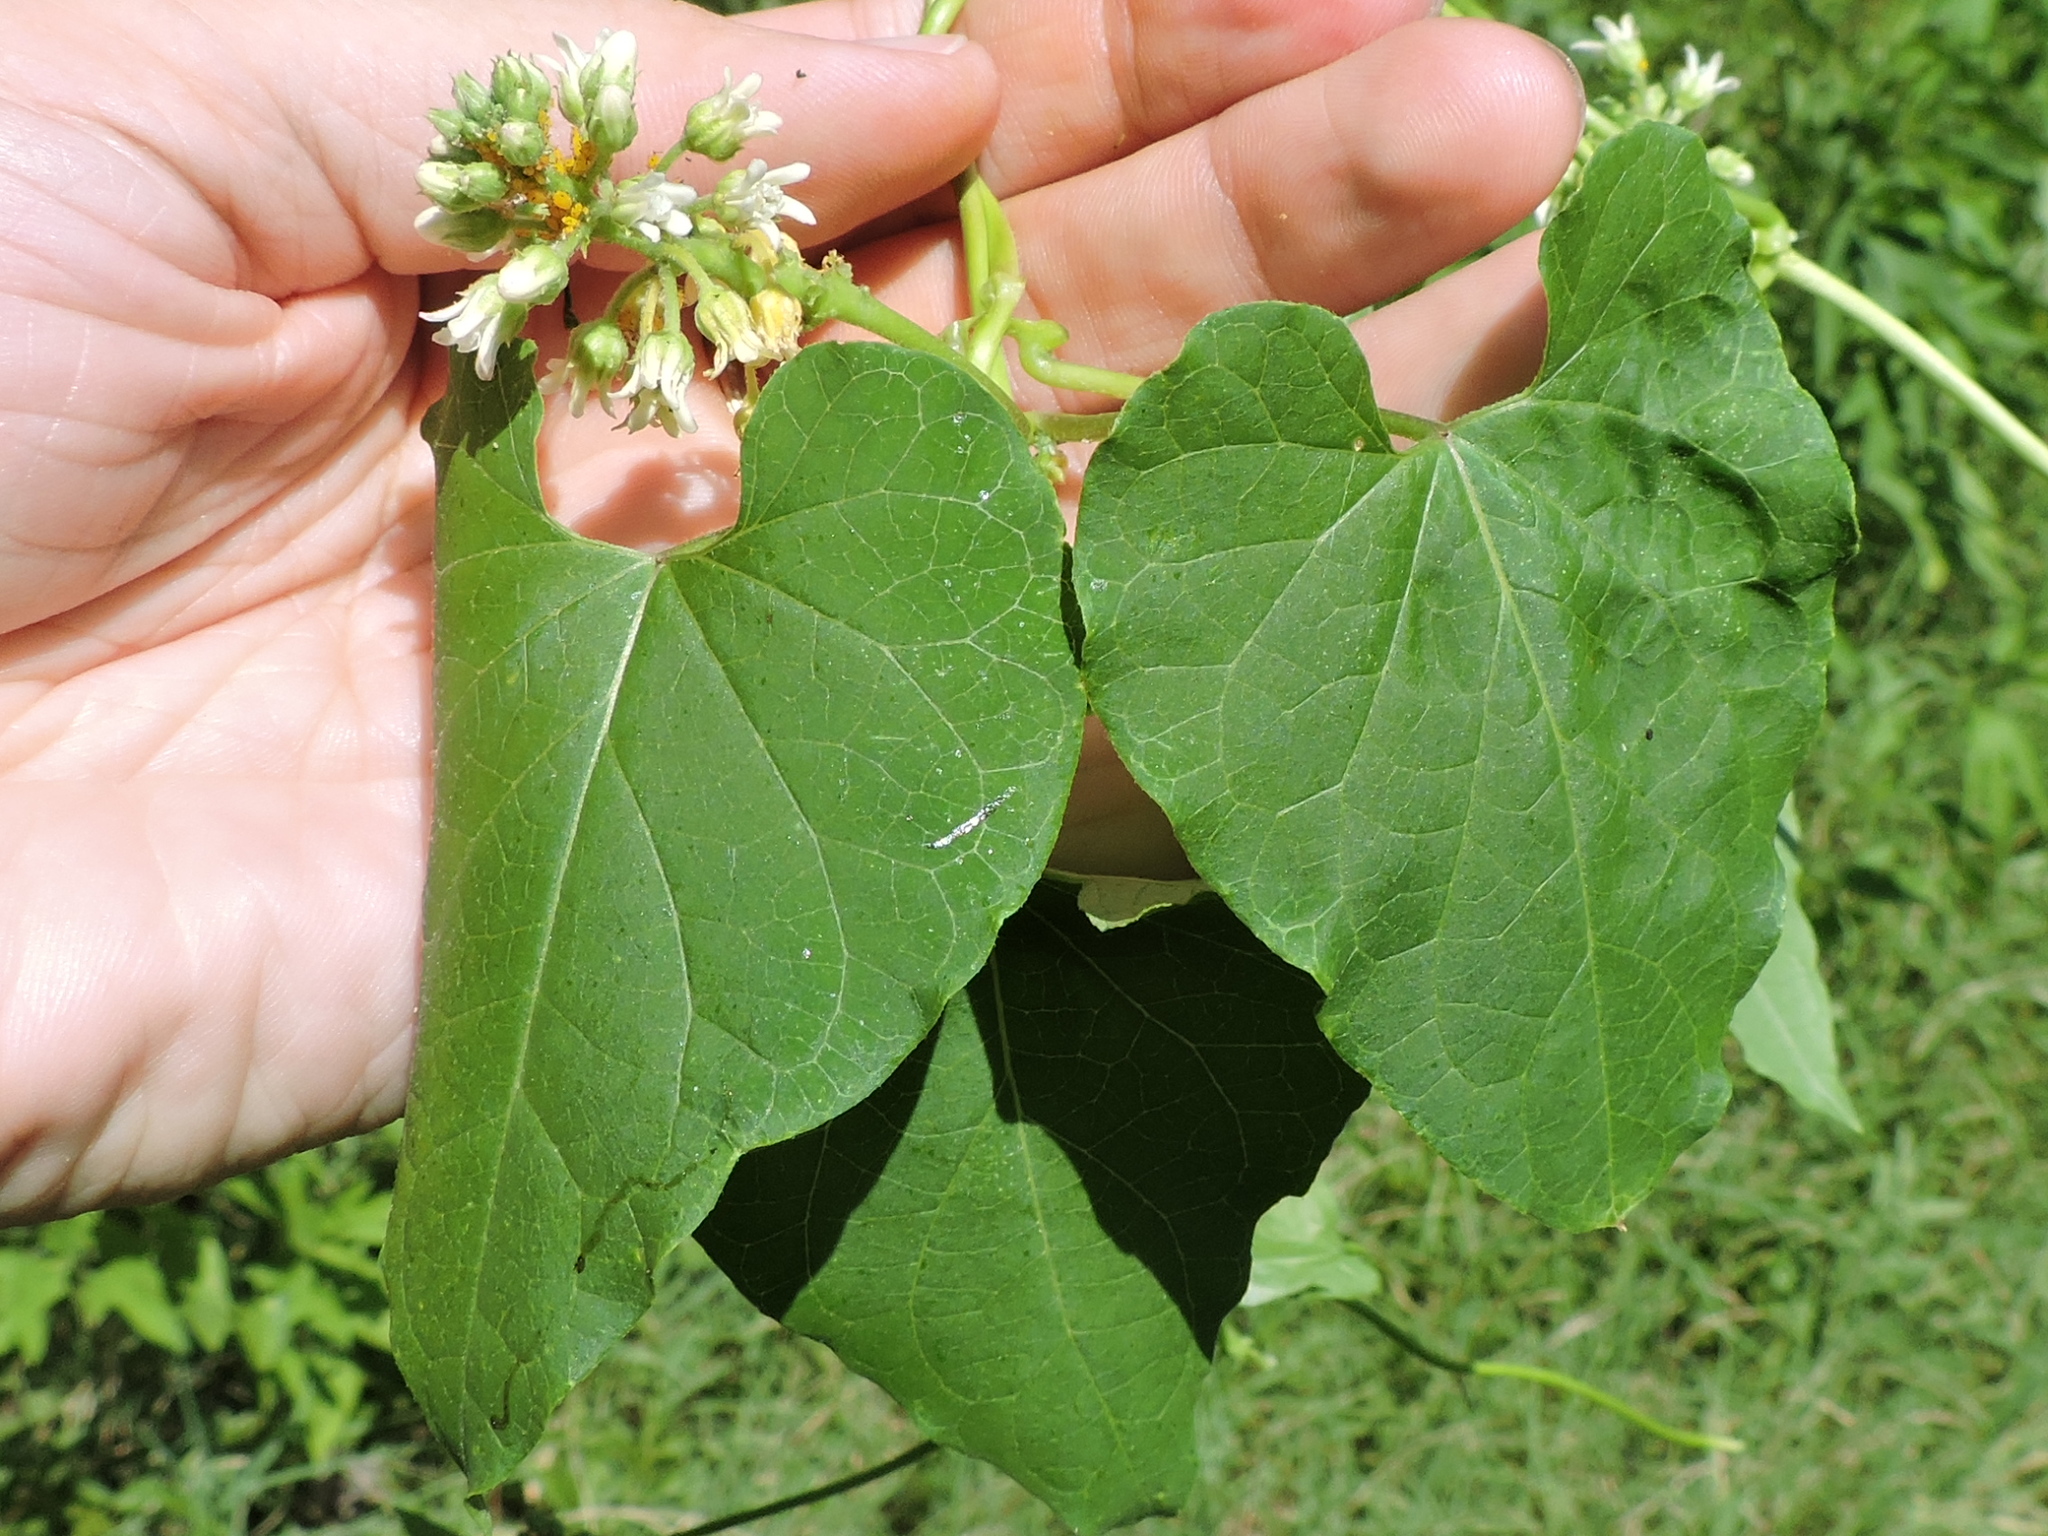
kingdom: Plantae
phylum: Tracheophyta
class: Magnoliopsida
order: Gentianales
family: Apocynaceae
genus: Cynanchum
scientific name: Cynanchum laeve
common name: Sandvine
